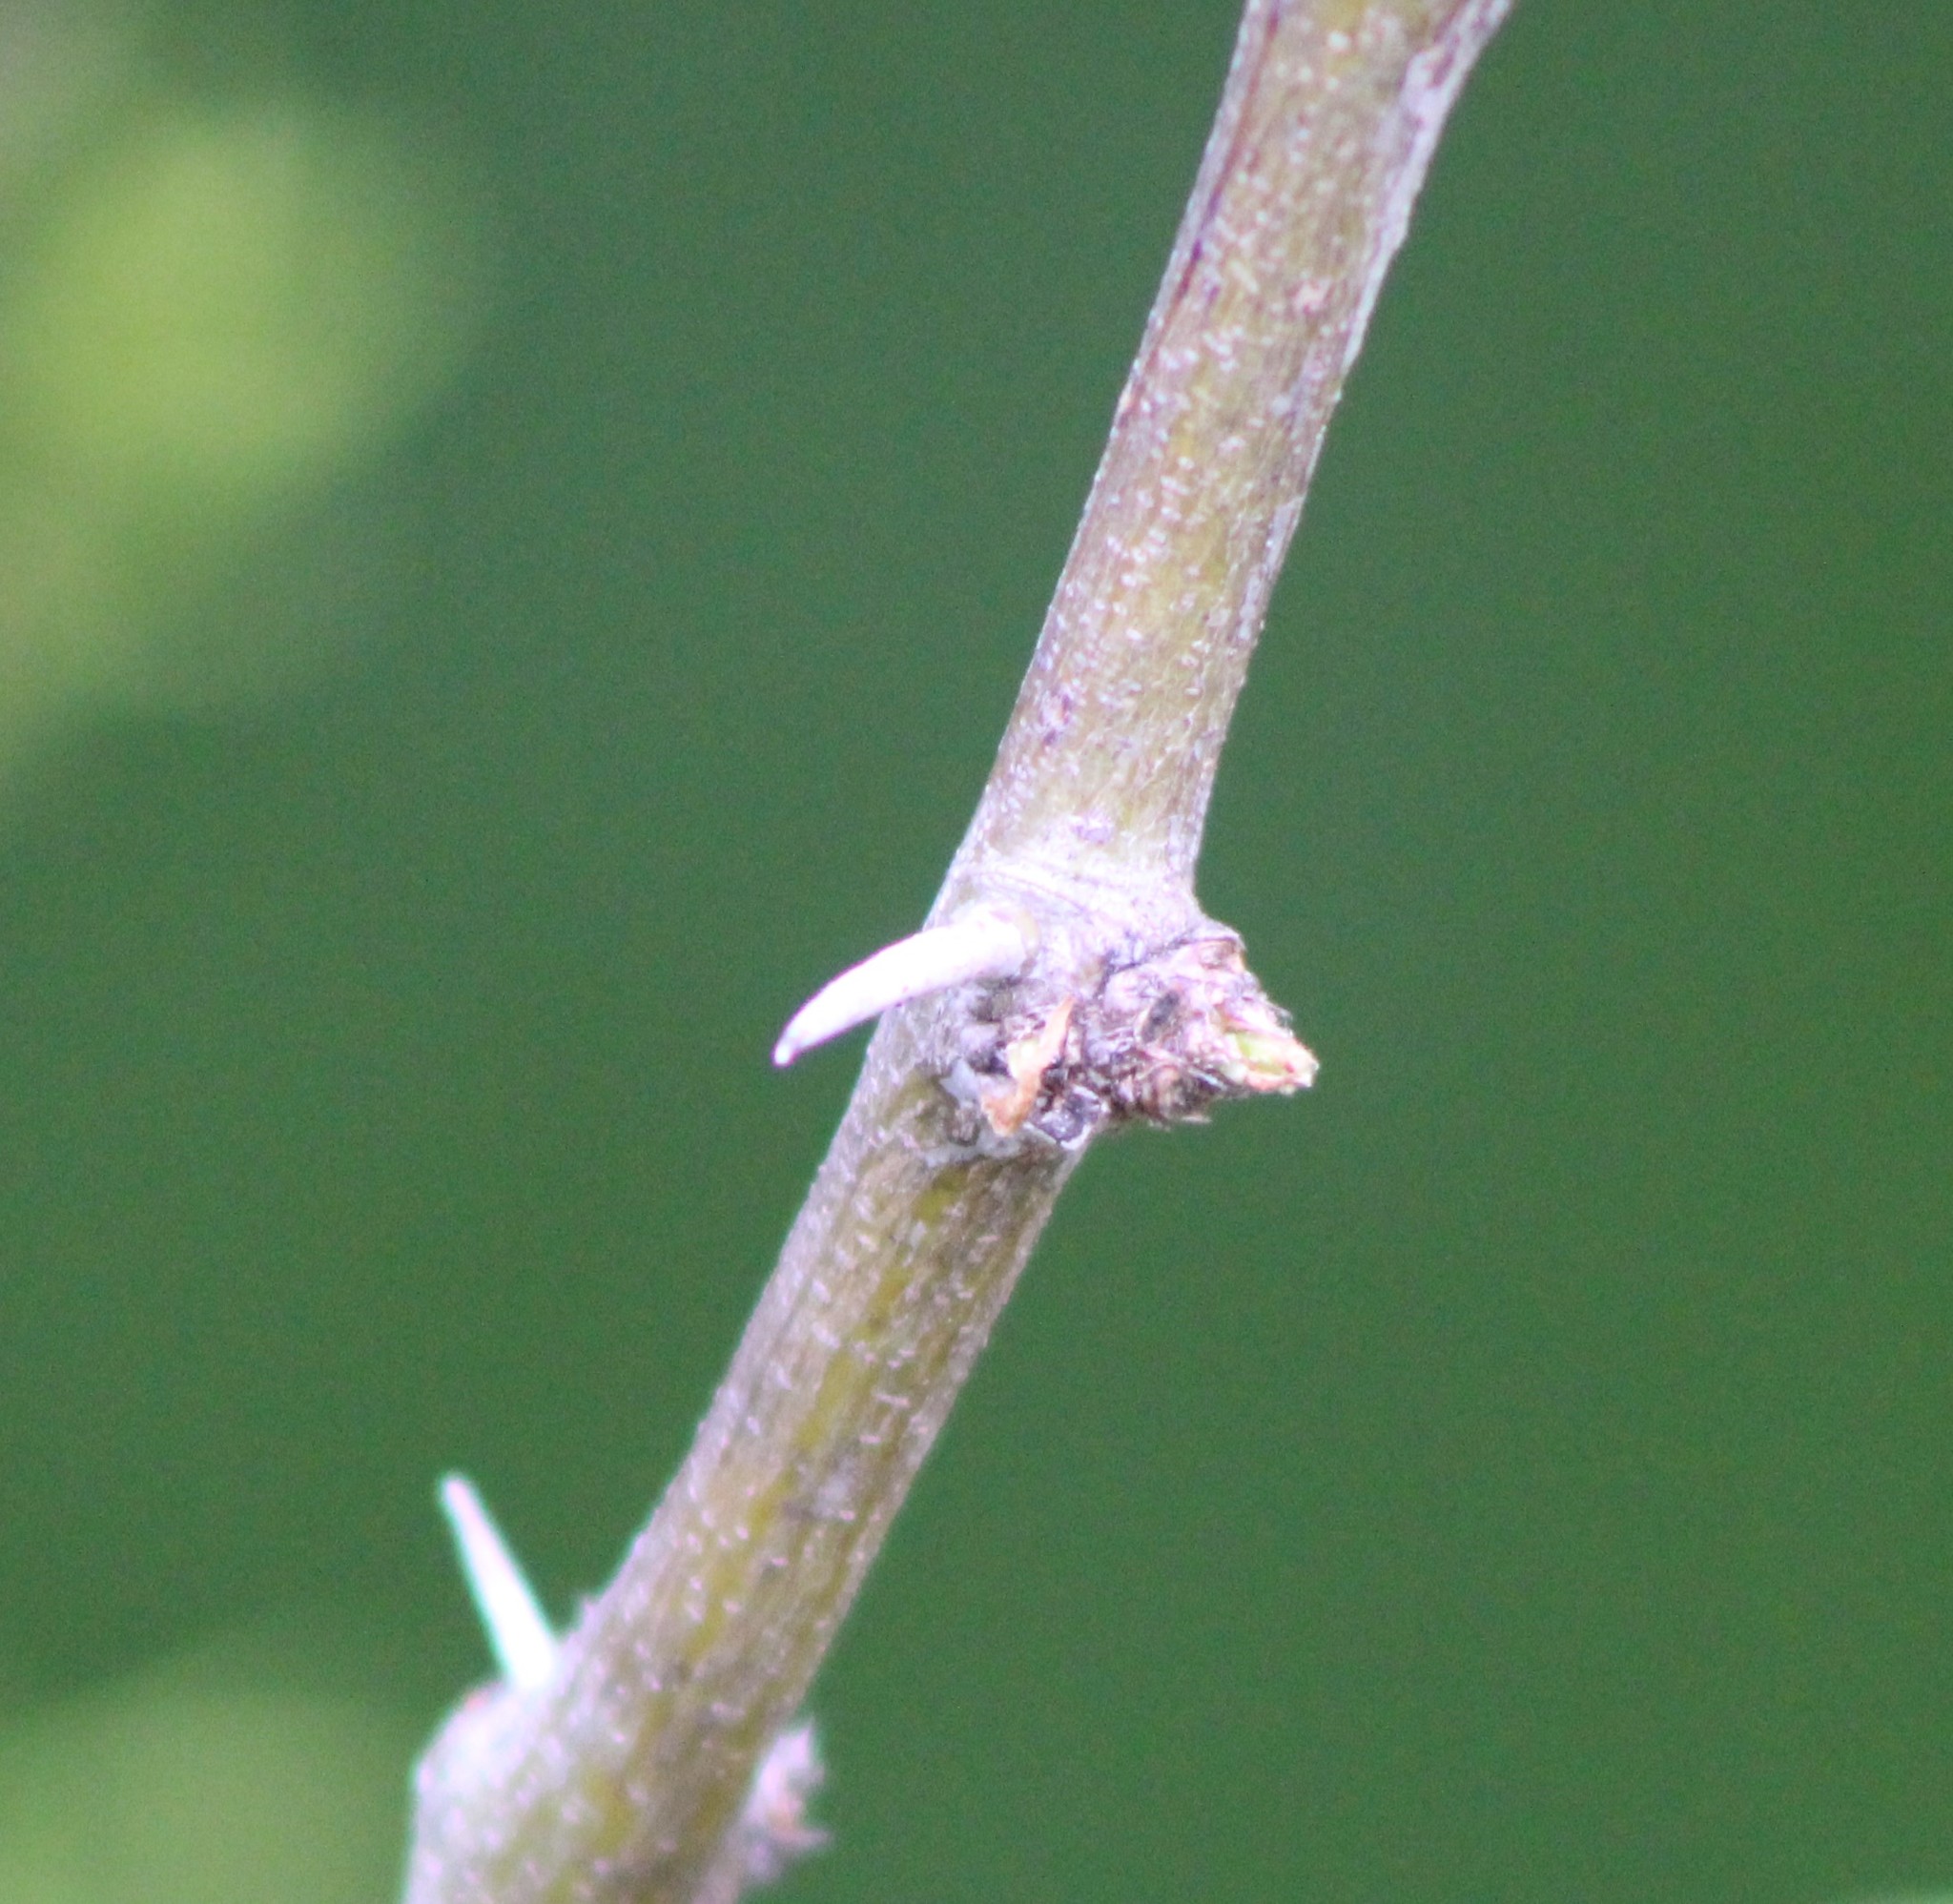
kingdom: Plantae
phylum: Tracheophyta
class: Magnoliopsida
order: Fabales
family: Fabaceae
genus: Prosopis
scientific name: Prosopis glandulosa
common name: Honey mesquite
